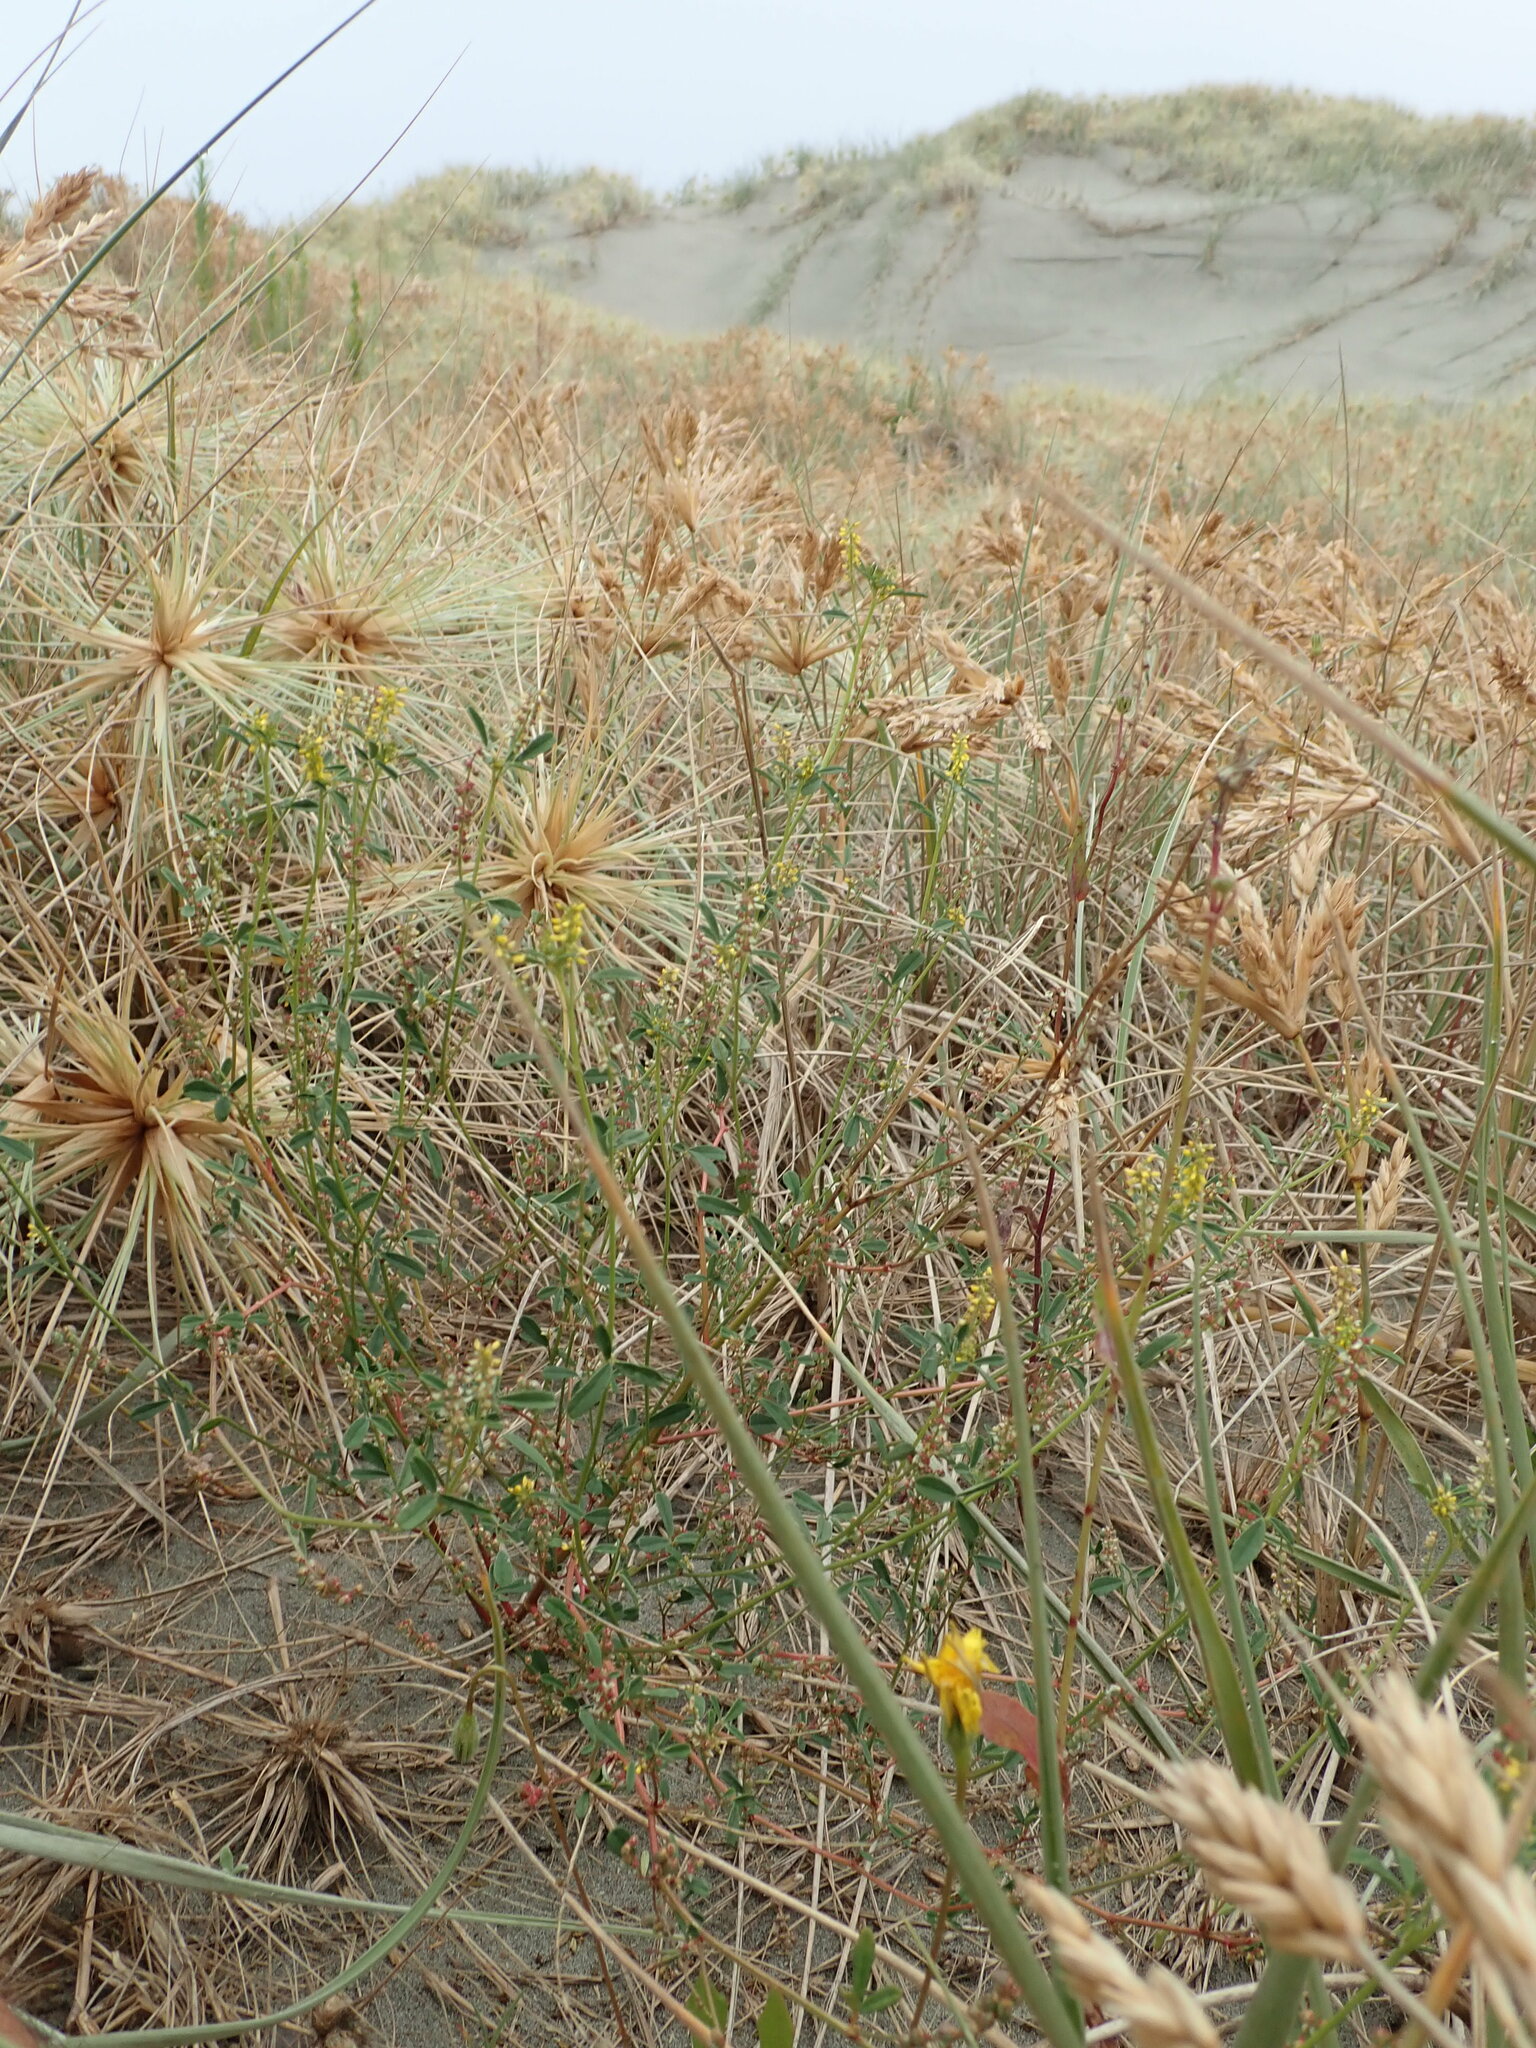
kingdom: Plantae
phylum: Tracheophyta
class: Magnoliopsida
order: Fabales
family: Fabaceae
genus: Melilotus
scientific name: Melilotus indicus
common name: Small melilot
